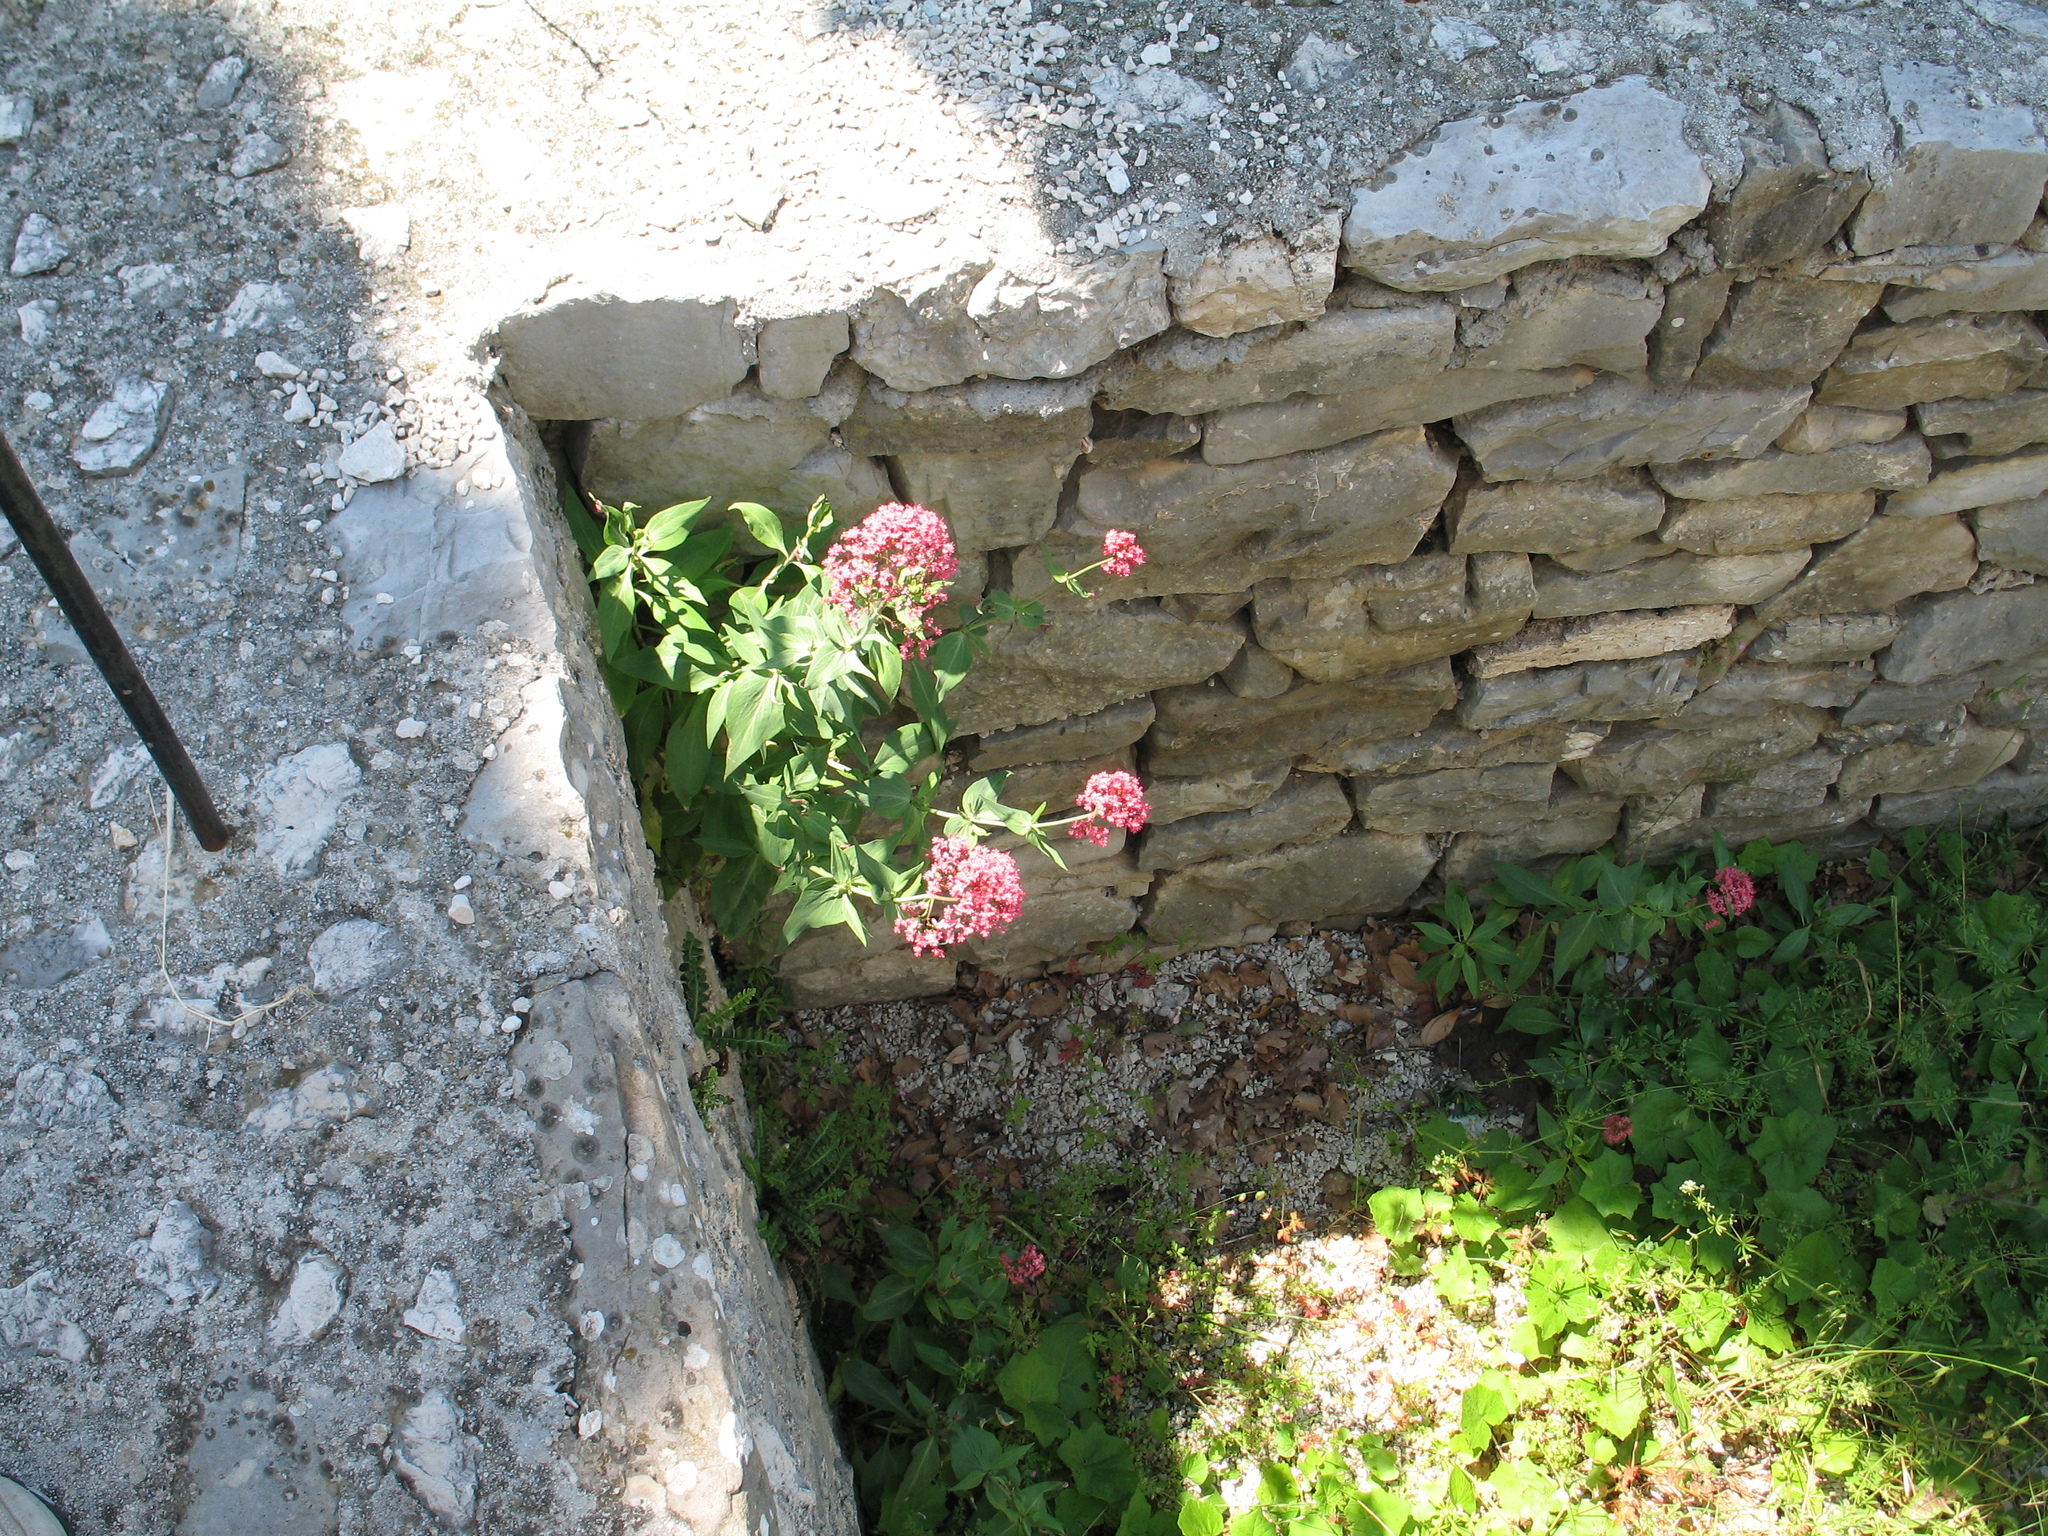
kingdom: Plantae
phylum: Tracheophyta
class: Magnoliopsida
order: Dipsacales
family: Caprifoliaceae
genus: Centranthus
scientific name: Centranthus ruber
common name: Red valerian
